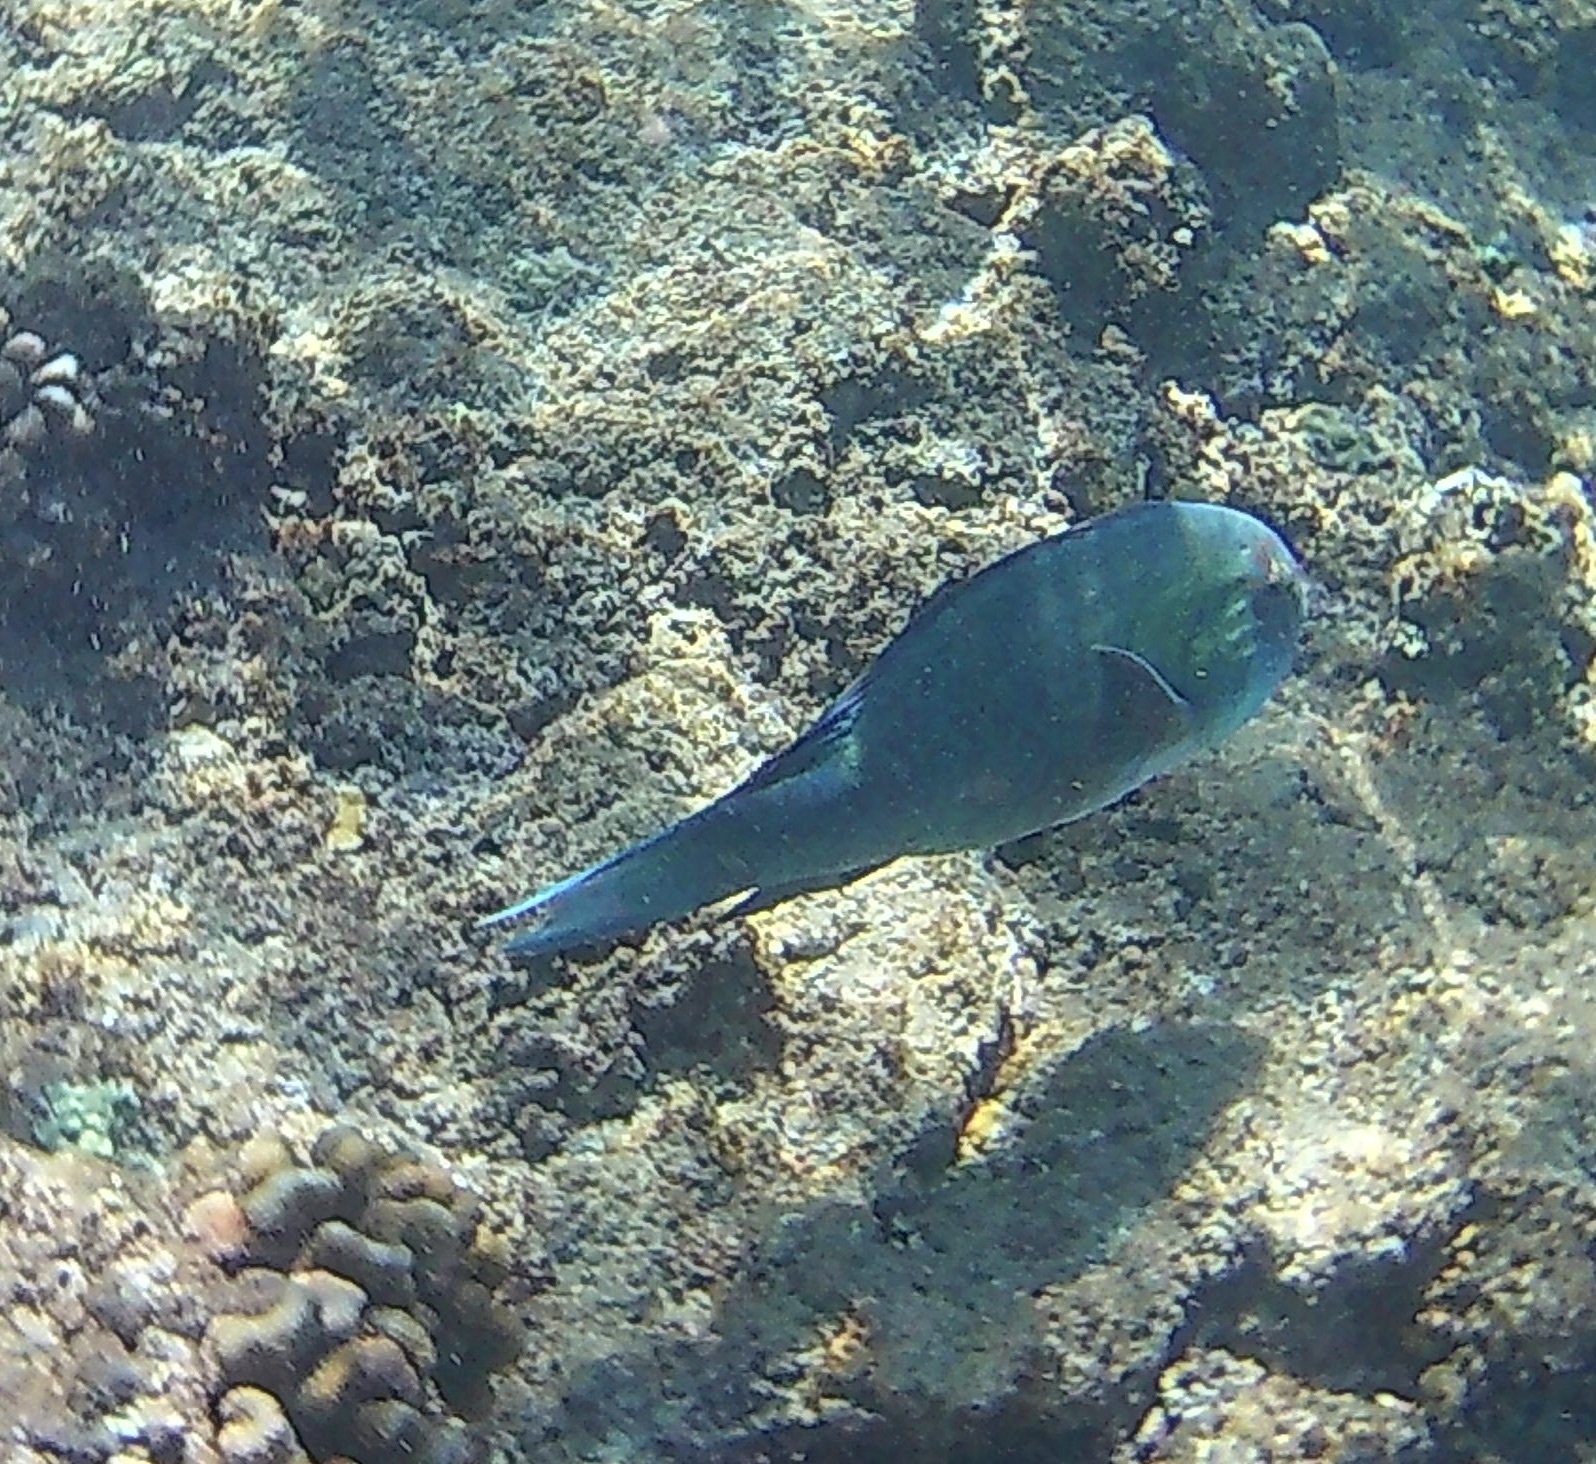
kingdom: Animalia
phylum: Chordata
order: Perciformes
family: Scaridae
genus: Calotomus
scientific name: Calotomus carolinus
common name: Bucktooth
